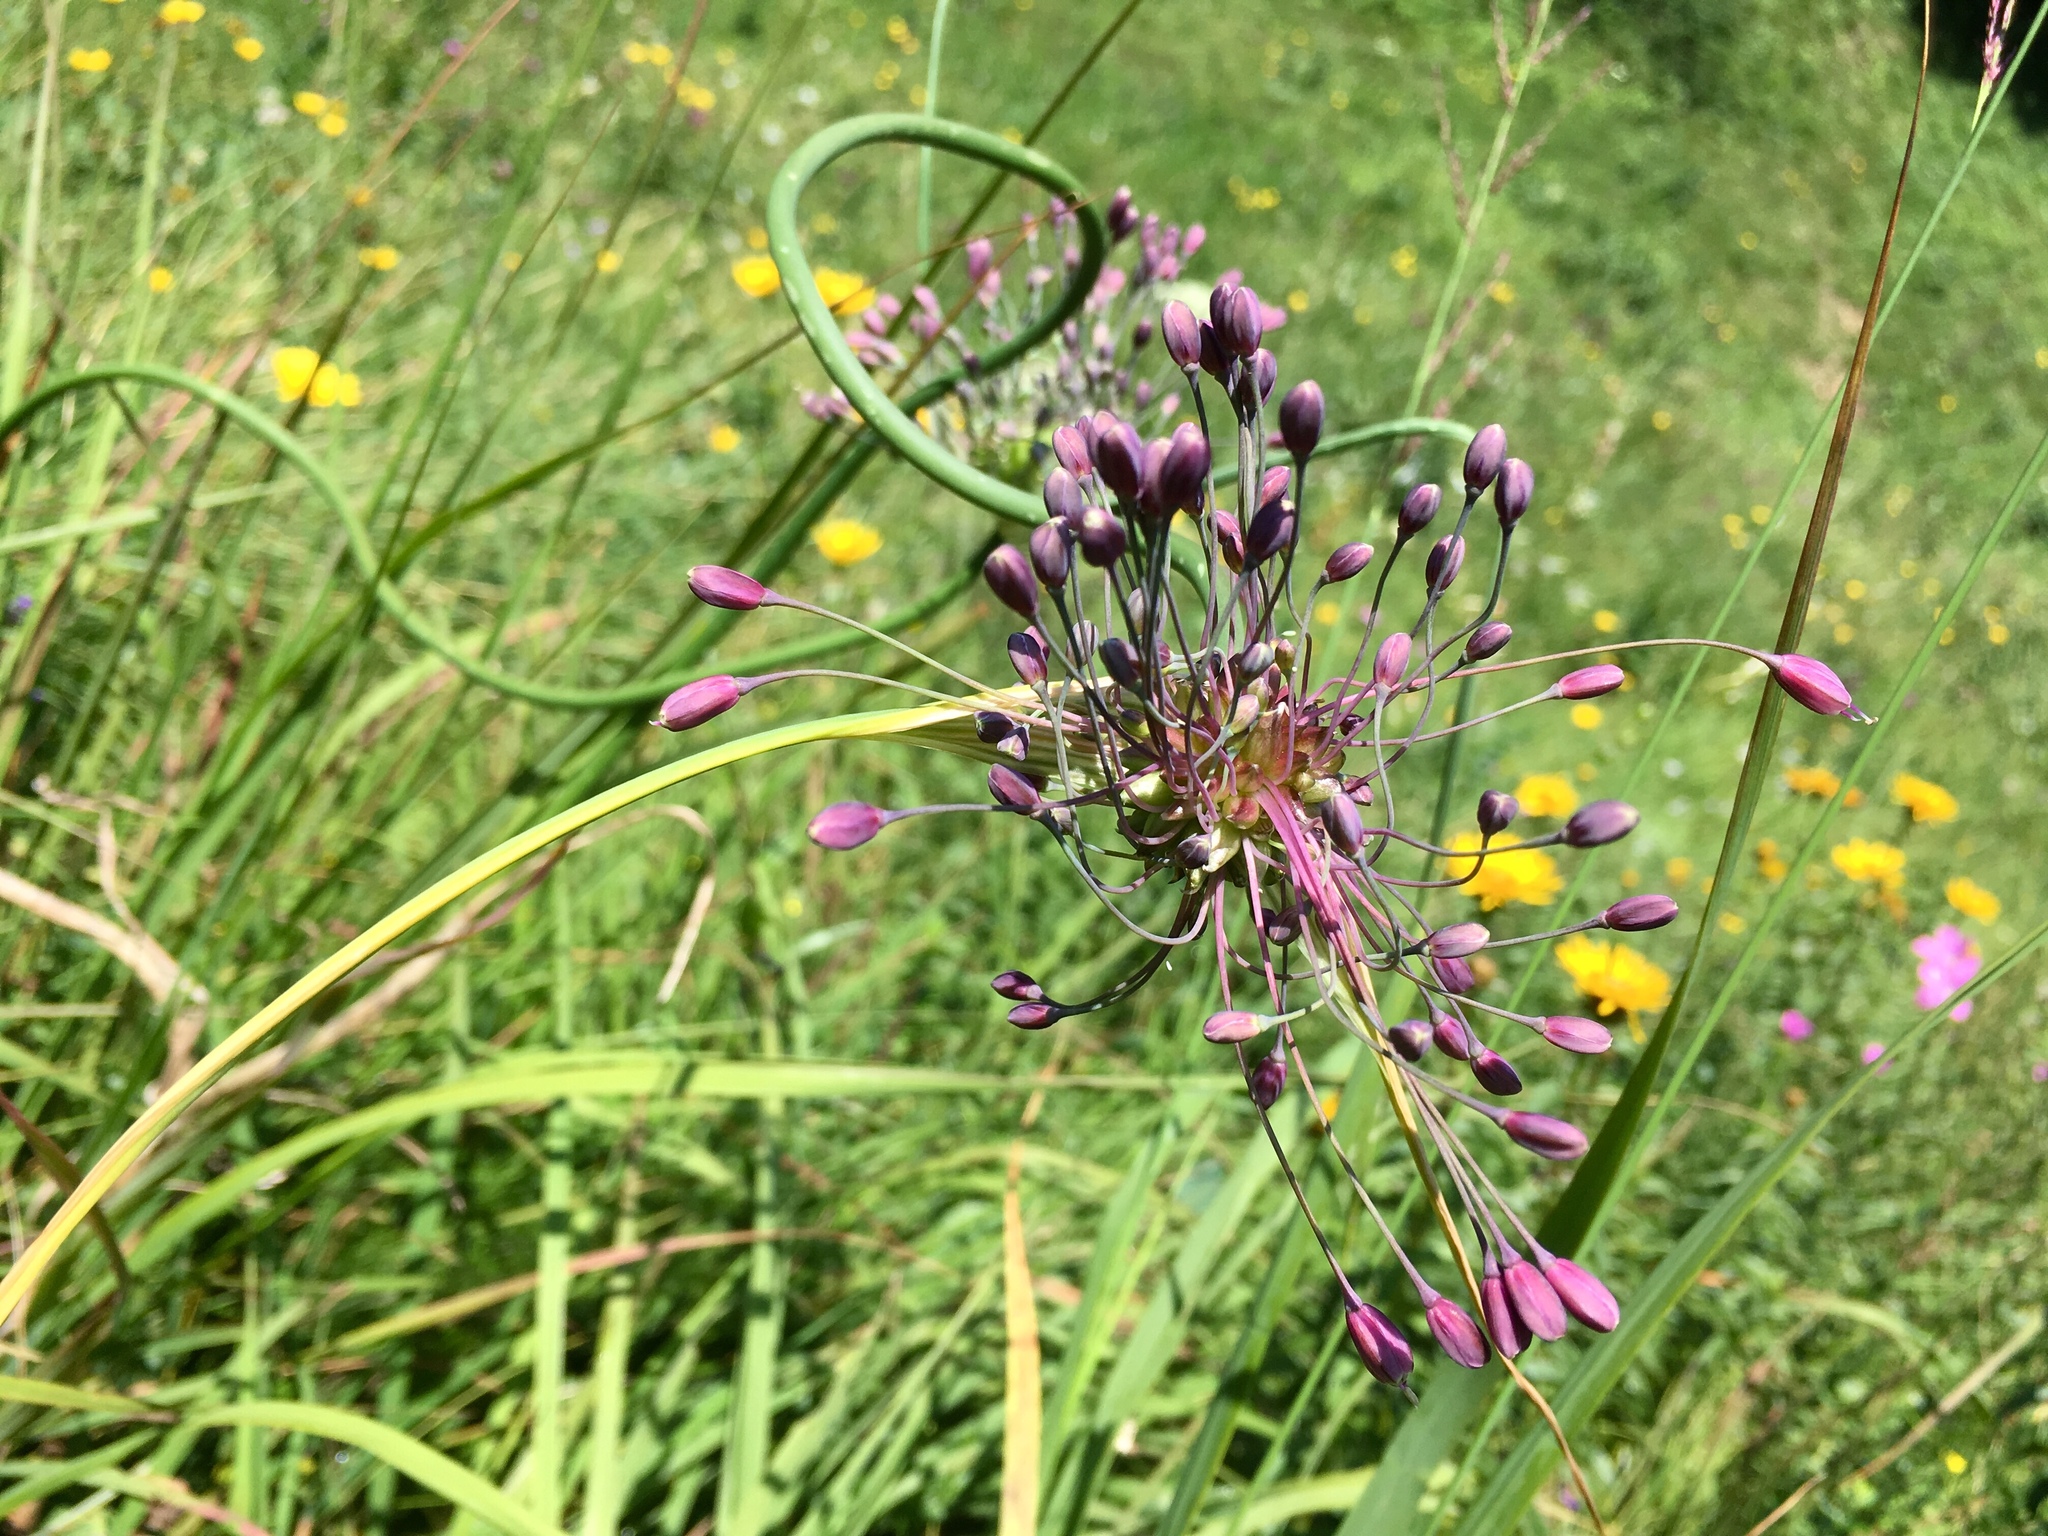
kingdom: Plantae
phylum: Tracheophyta
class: Liliopsida
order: Asparagales
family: Amaryllidaceae
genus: Allium
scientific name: Allium carinatum
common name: Keeled garlic
